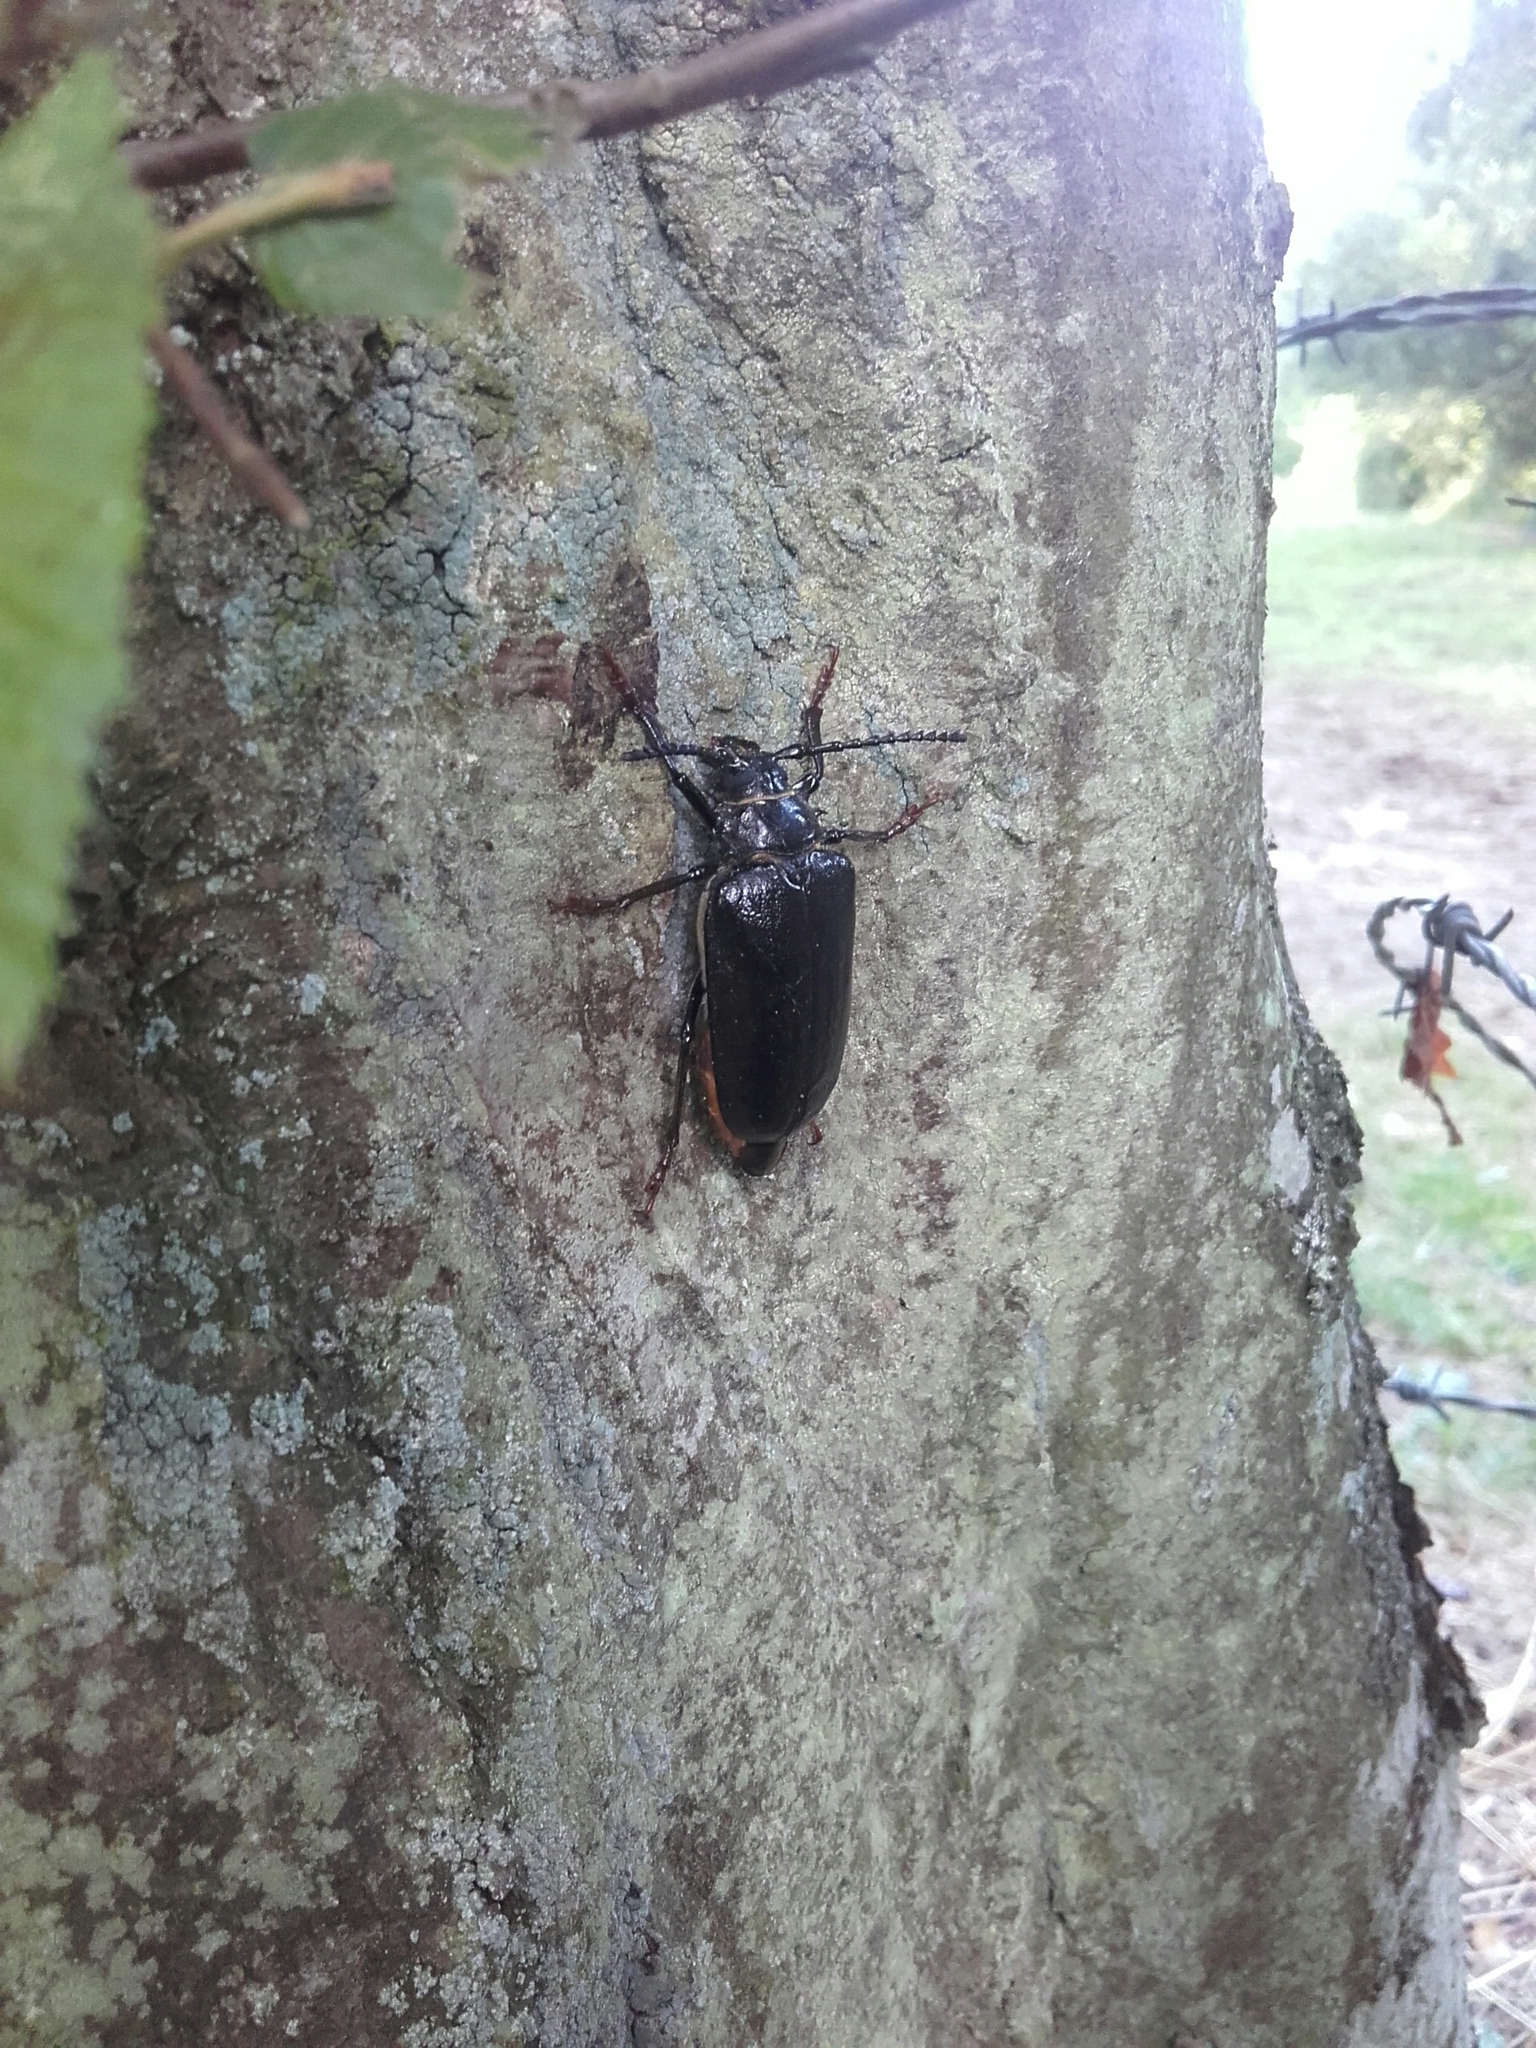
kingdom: Animalia
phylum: Arthropoda
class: Insecta
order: Coleoptera
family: Cerambycidae
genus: Prionus
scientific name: Prionus coriarius
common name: Tanner beetle
